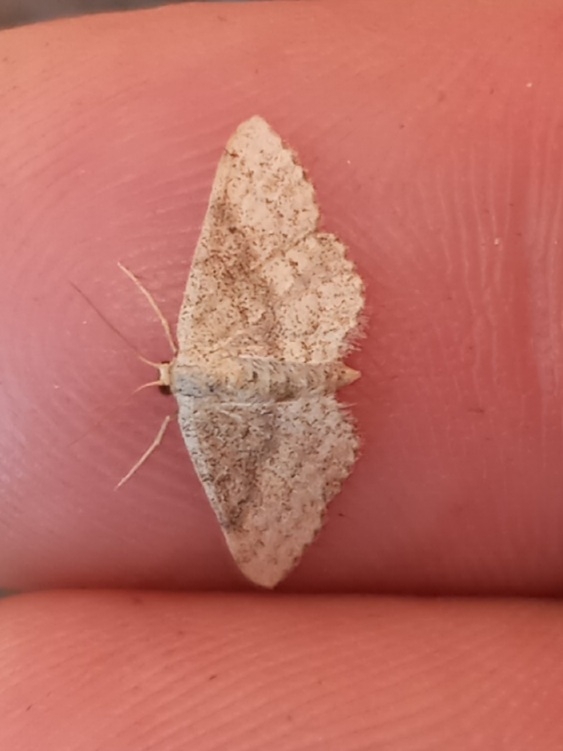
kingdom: Animalia
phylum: Arthropoda
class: Insecta
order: Lepidoptera
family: Geometridae
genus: Lobocleta
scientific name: Lobocleta ossularia
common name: Drab brown wave
